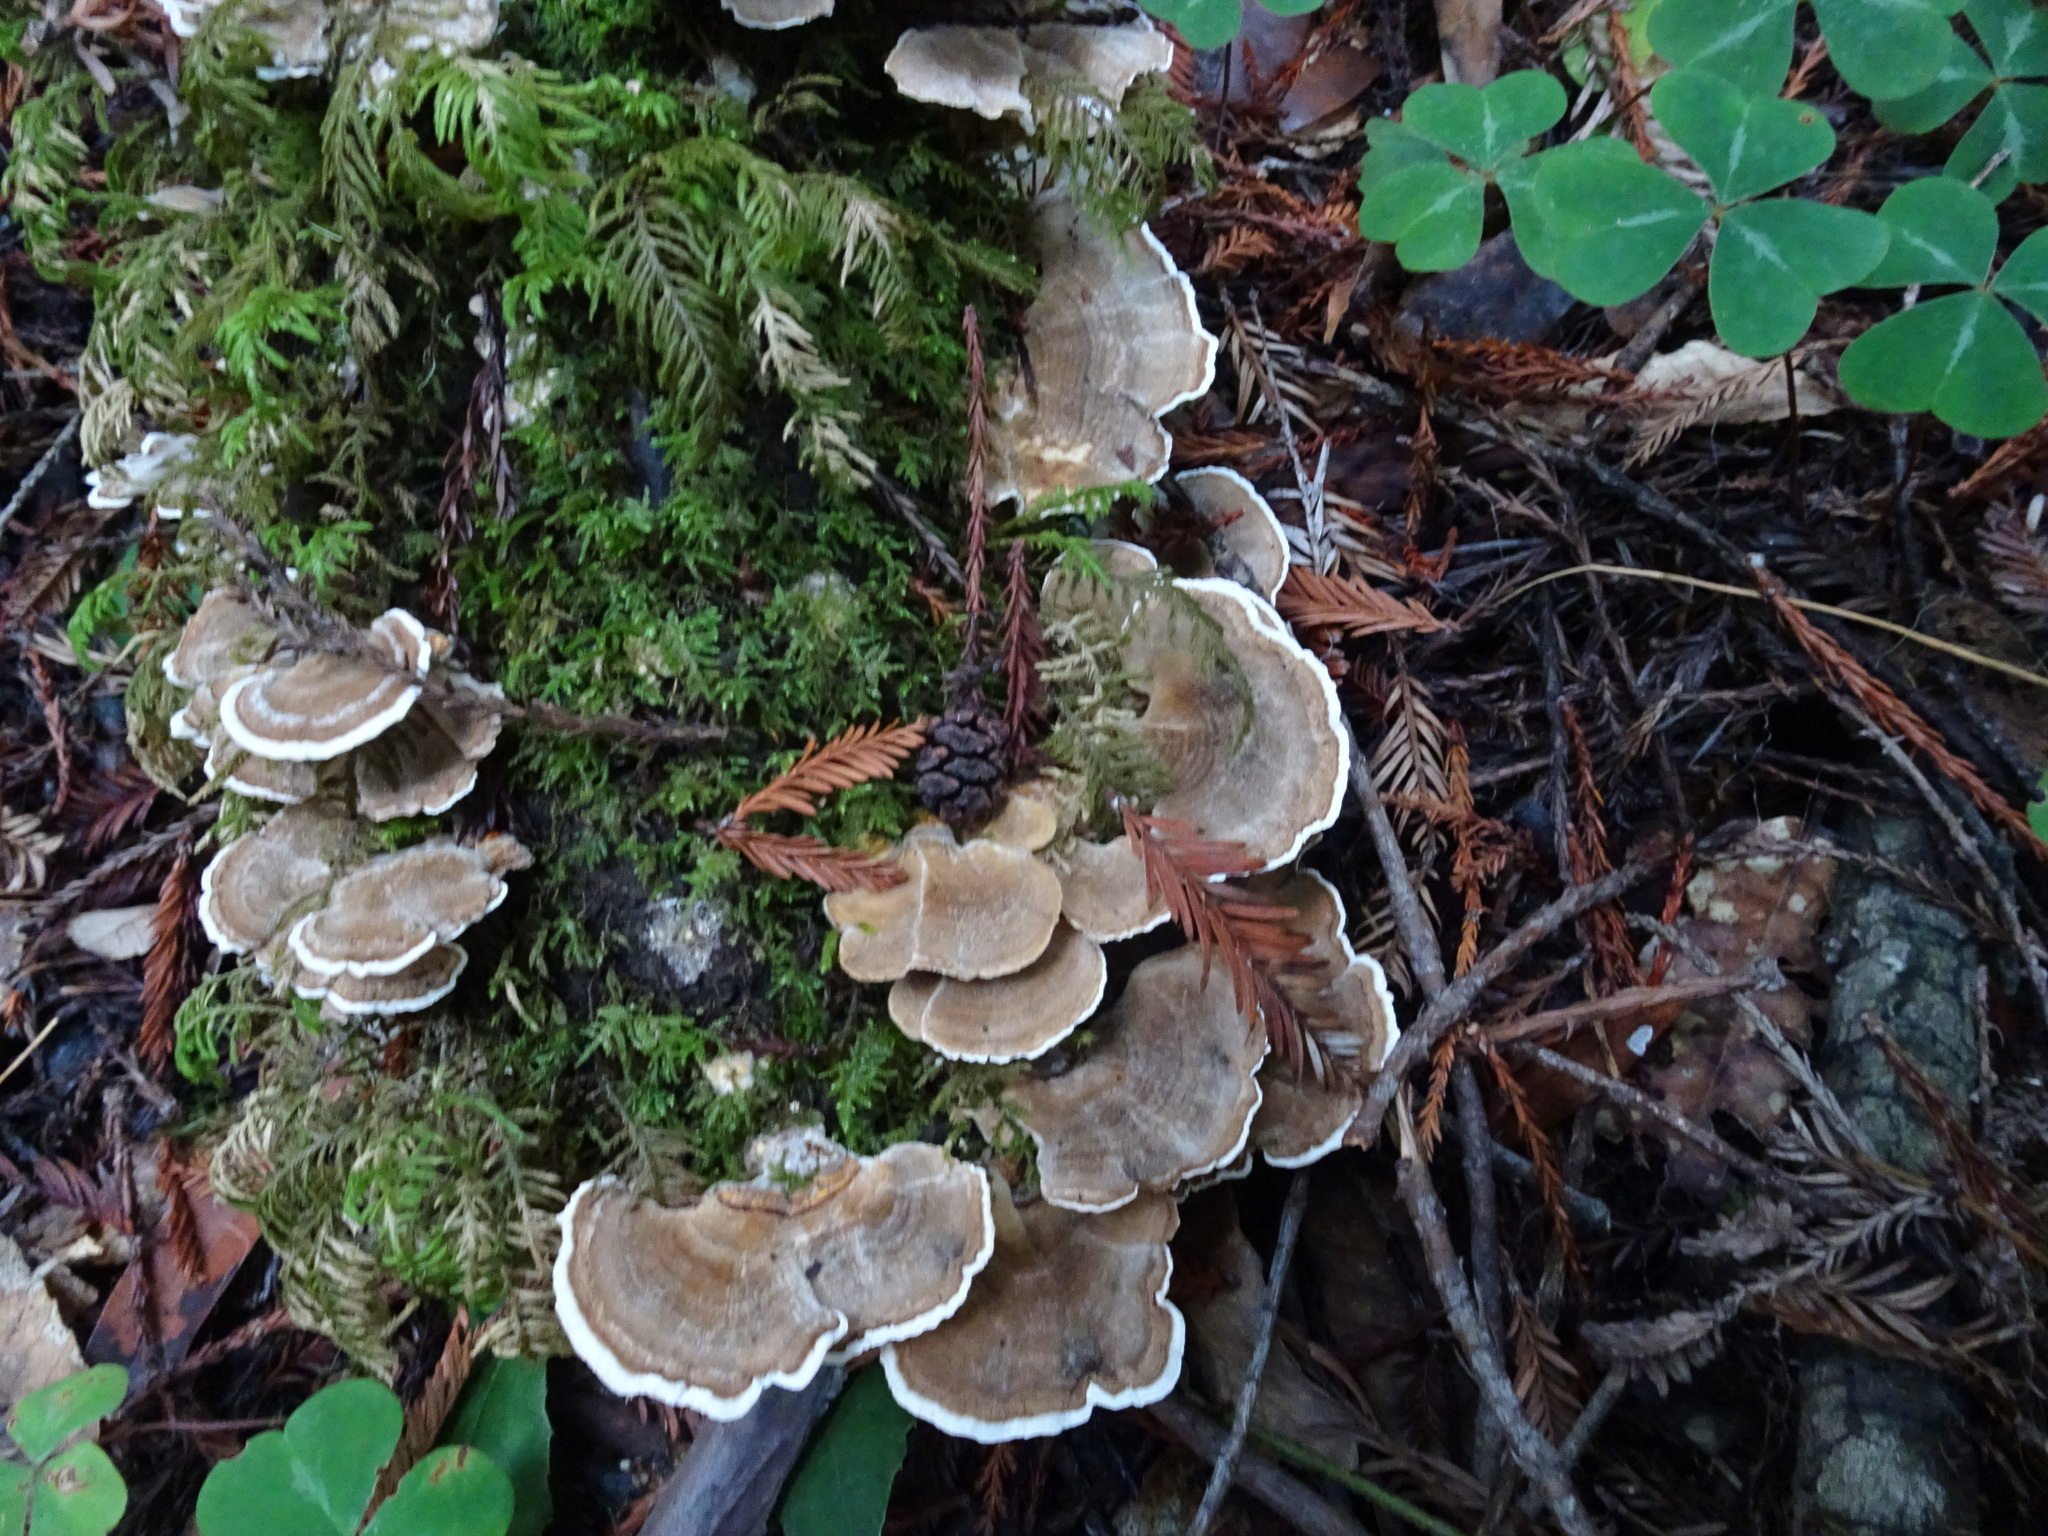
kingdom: Fungi
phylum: Basidiomycota
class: Agaricomycetes
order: Polyporales
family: Polyporaceae
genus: Trametes
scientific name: Trametes versicolor
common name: Turkeytail
